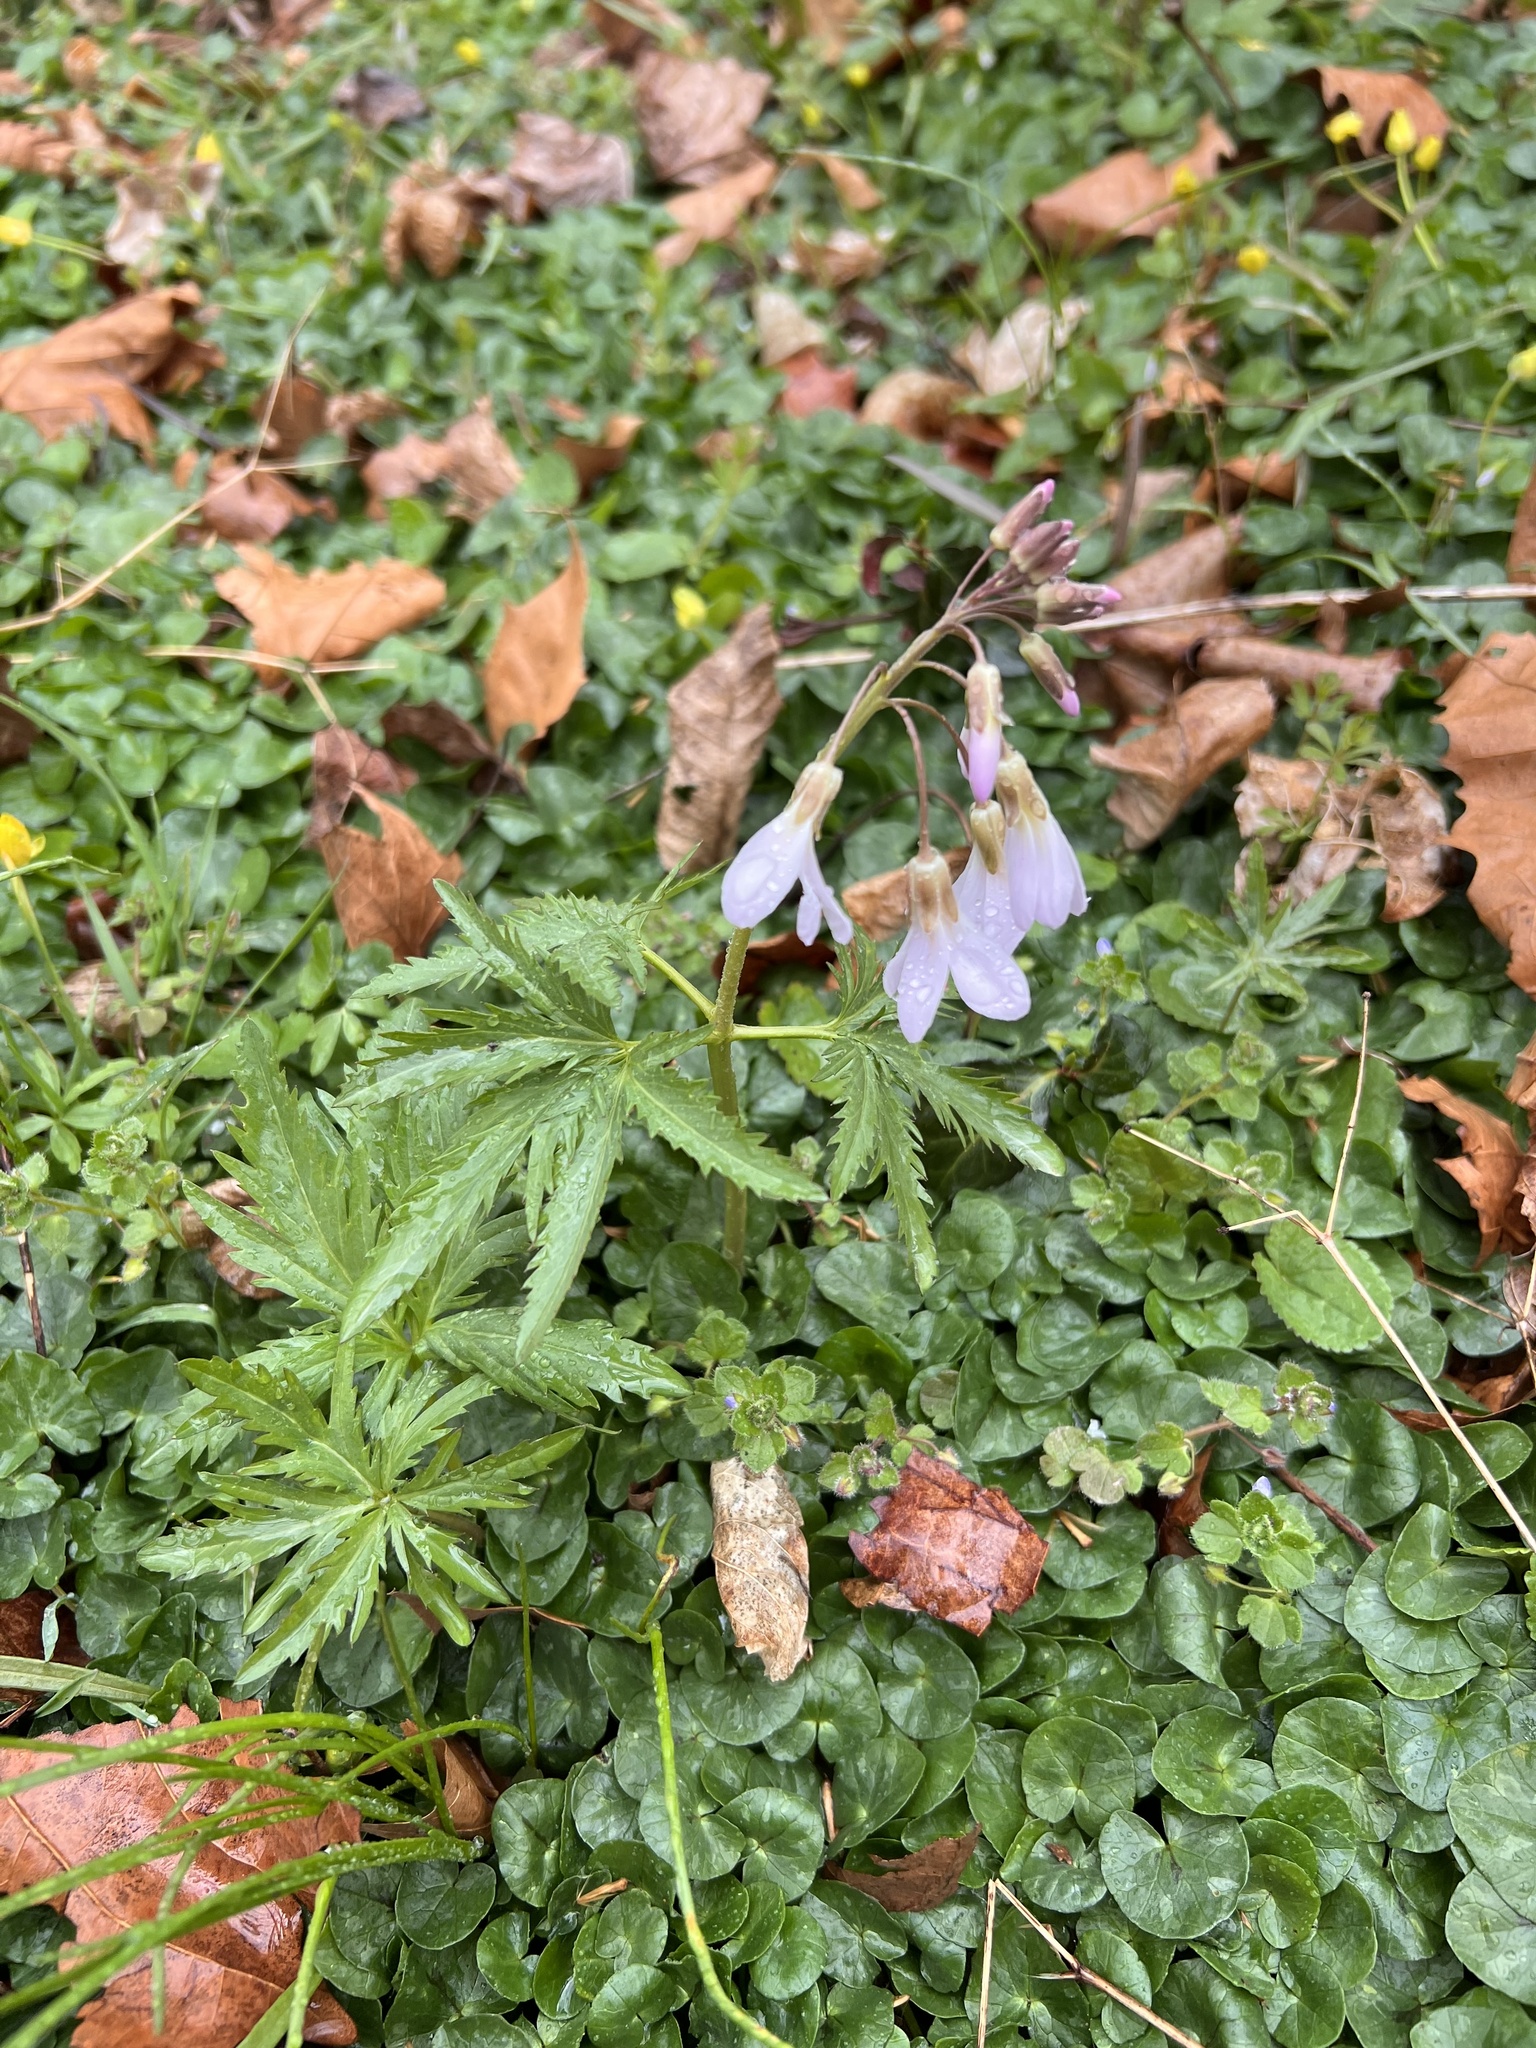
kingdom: Plantae
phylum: Tracheophyta
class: Magnoliopsida
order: Brassicales
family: Brassicaceae
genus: Cardamine
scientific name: Cardamine concatenata
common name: Cut-leaf toothcup
